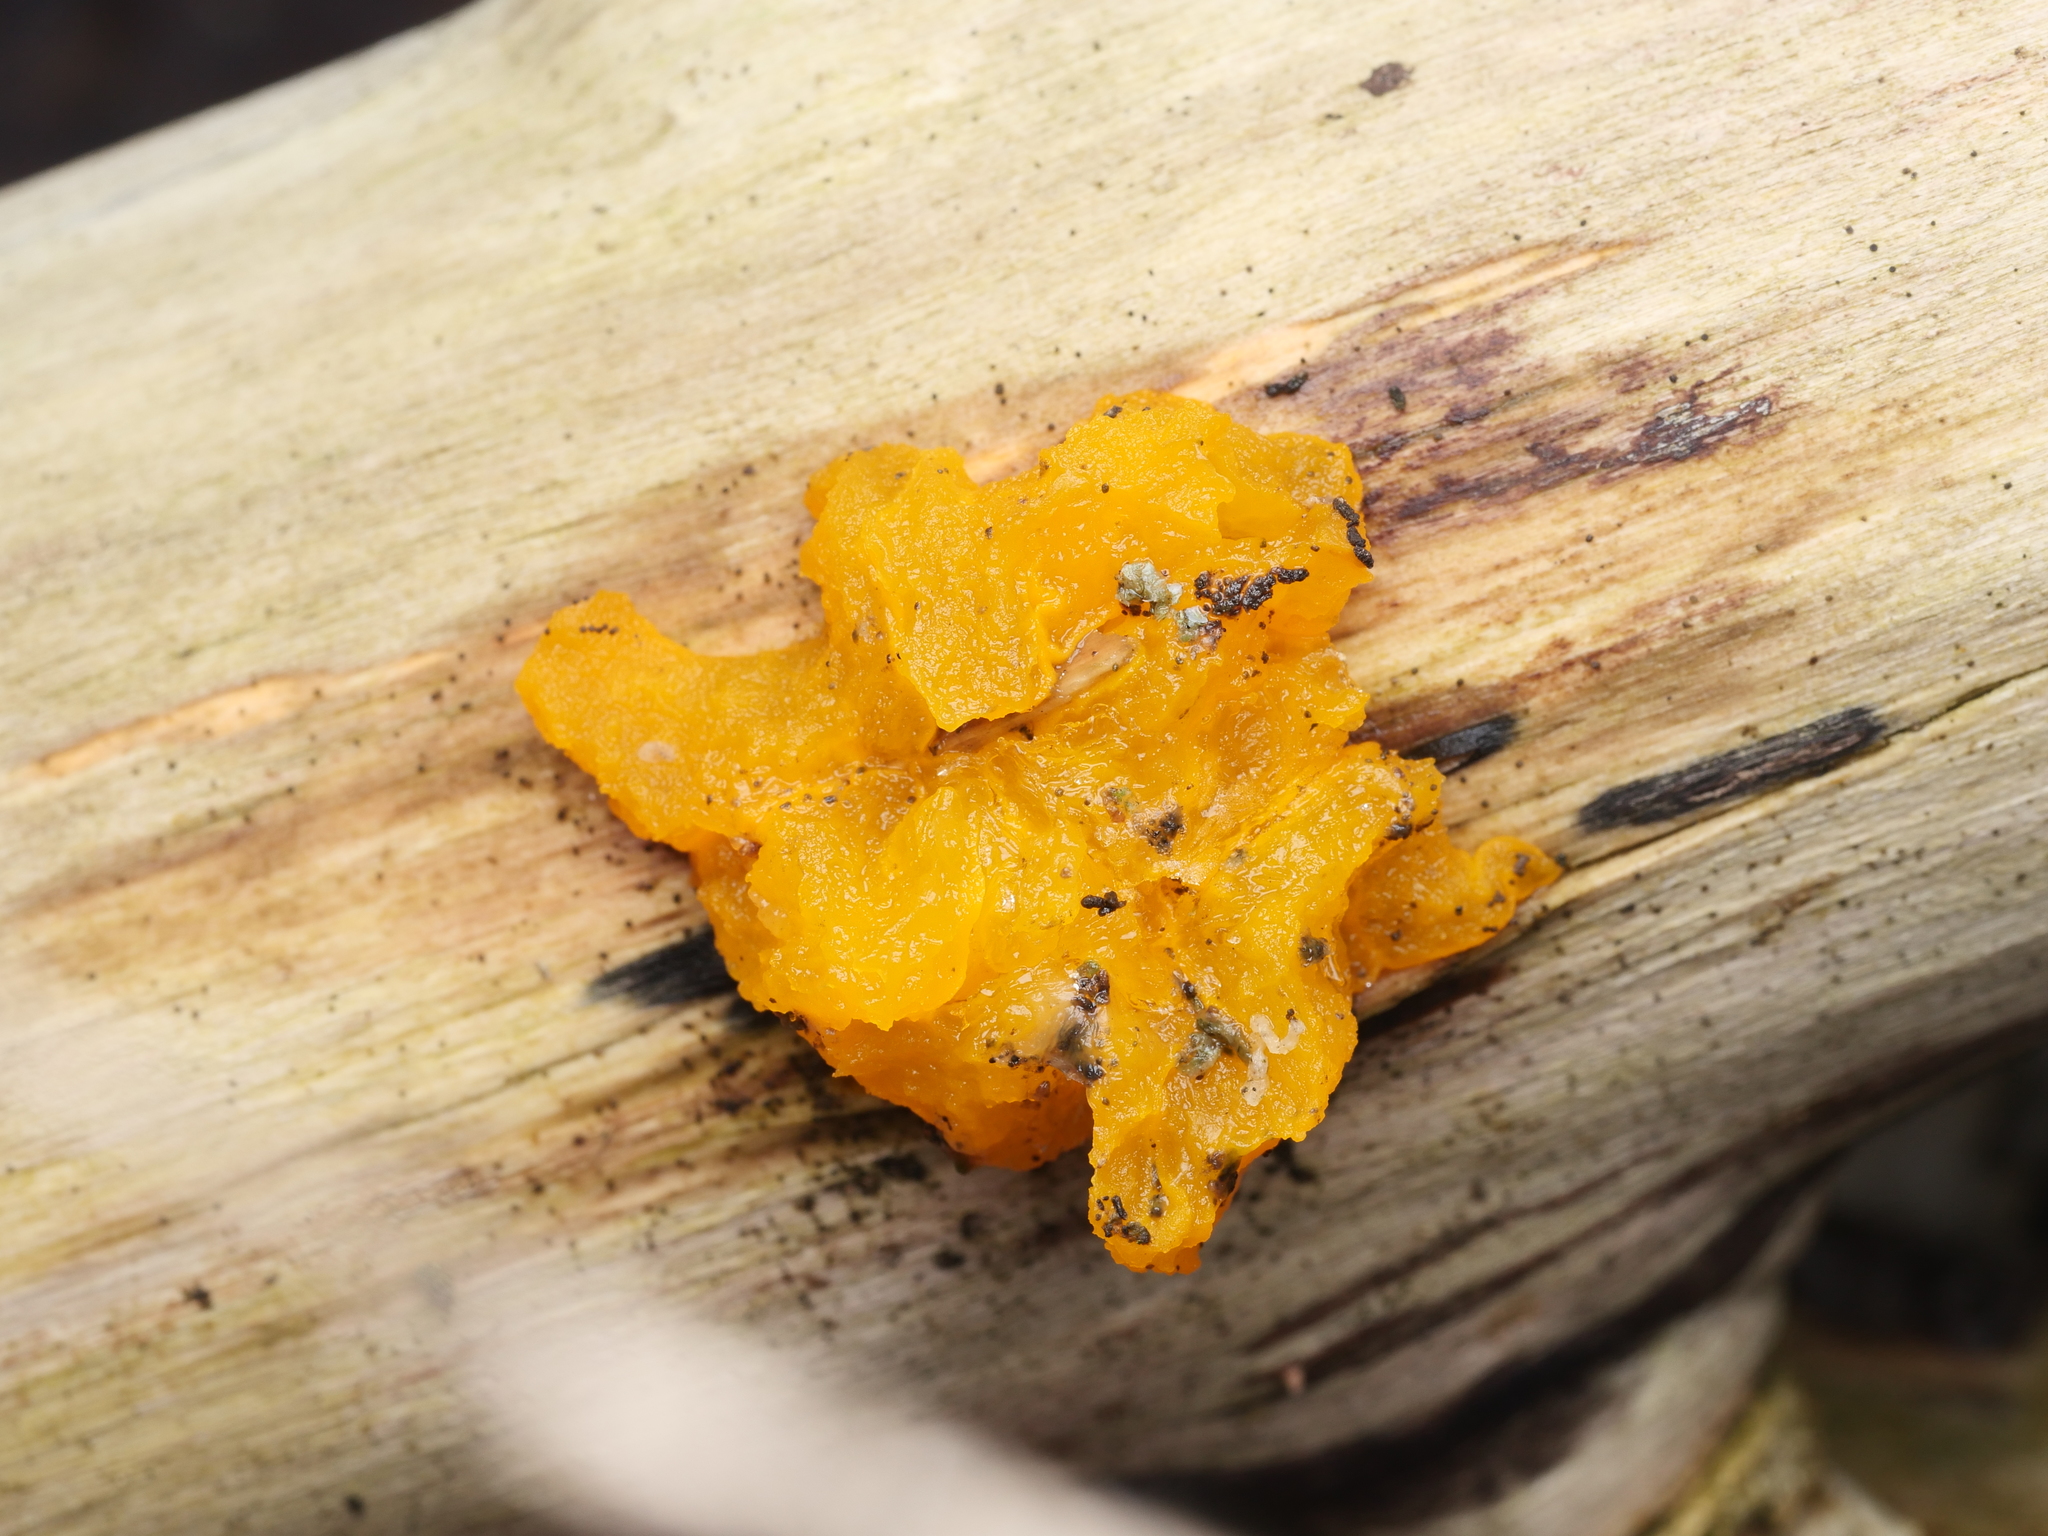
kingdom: Fungi
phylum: Basidiomycota
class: Tremellomycetes
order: Tremellales
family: Tremellaceae
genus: Tremella
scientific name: Tremella mesenterica
